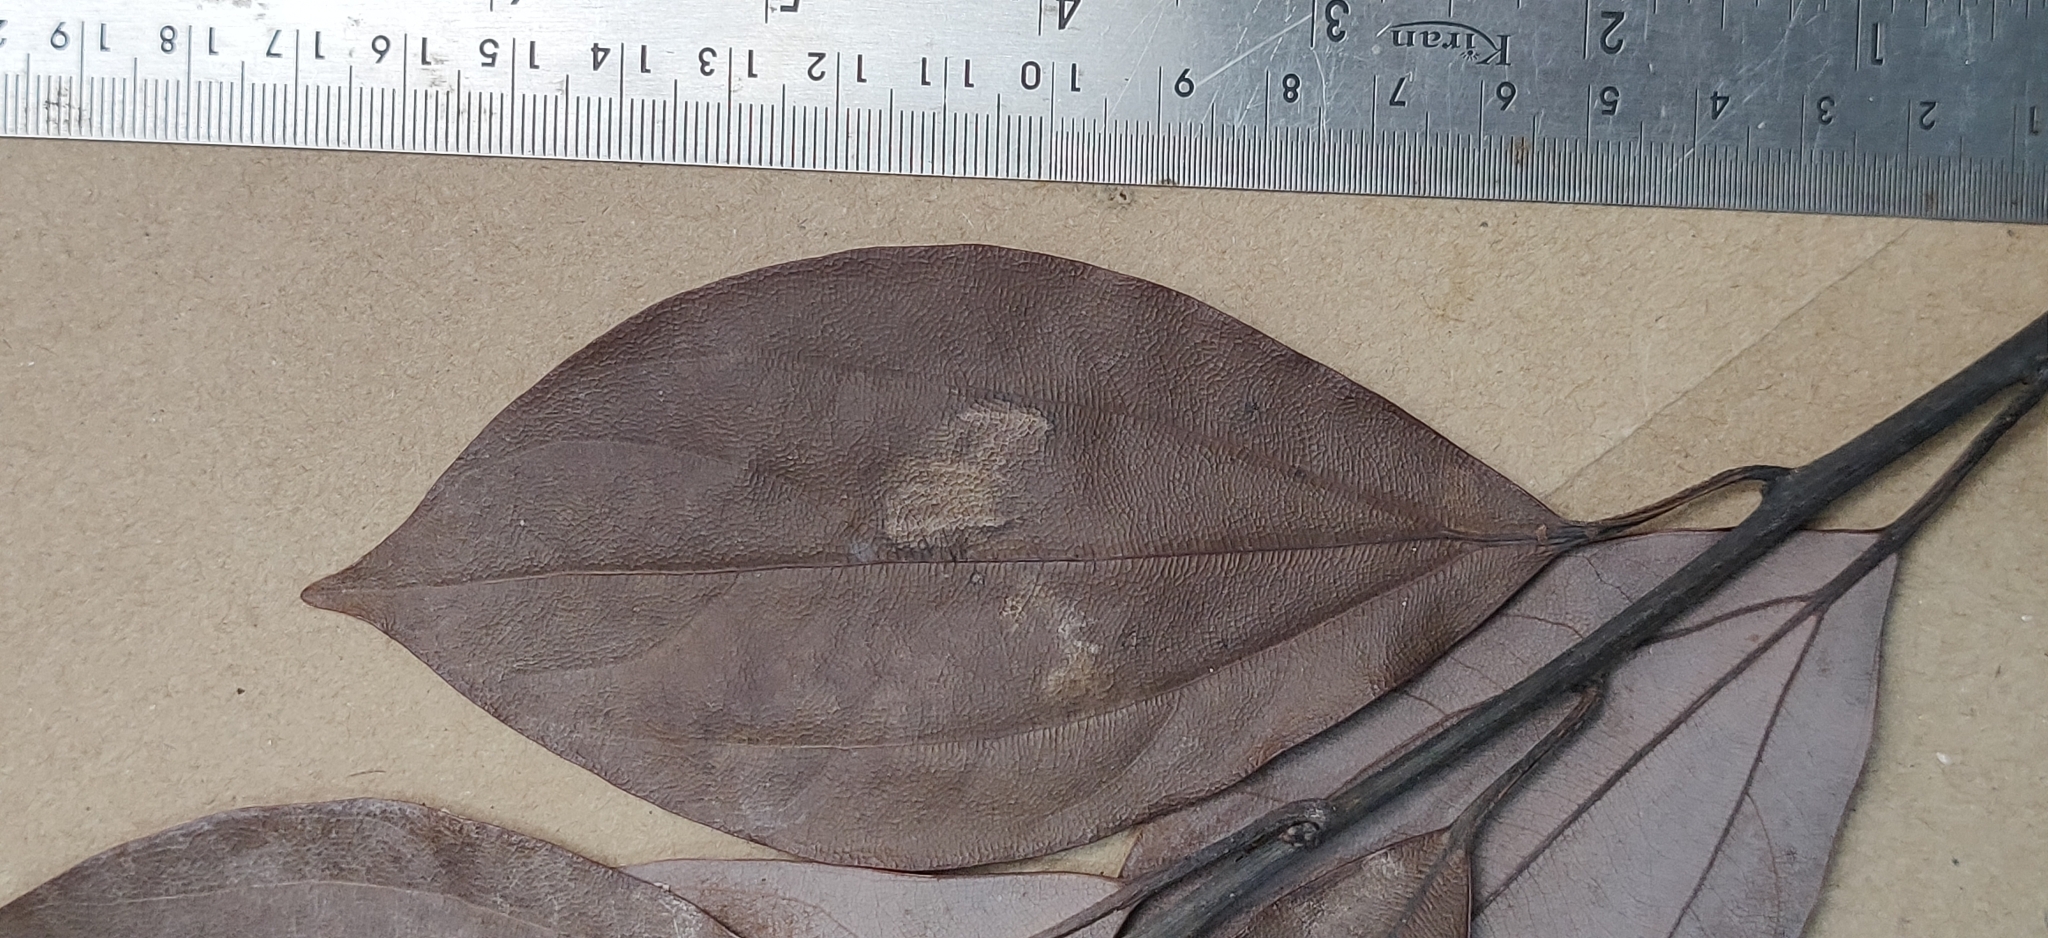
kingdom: Plantae
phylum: Tracheophyta
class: Magnoliopsida
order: Laurales
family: Lauraceae
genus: Neolitsea
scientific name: Neolitsea foliosa
